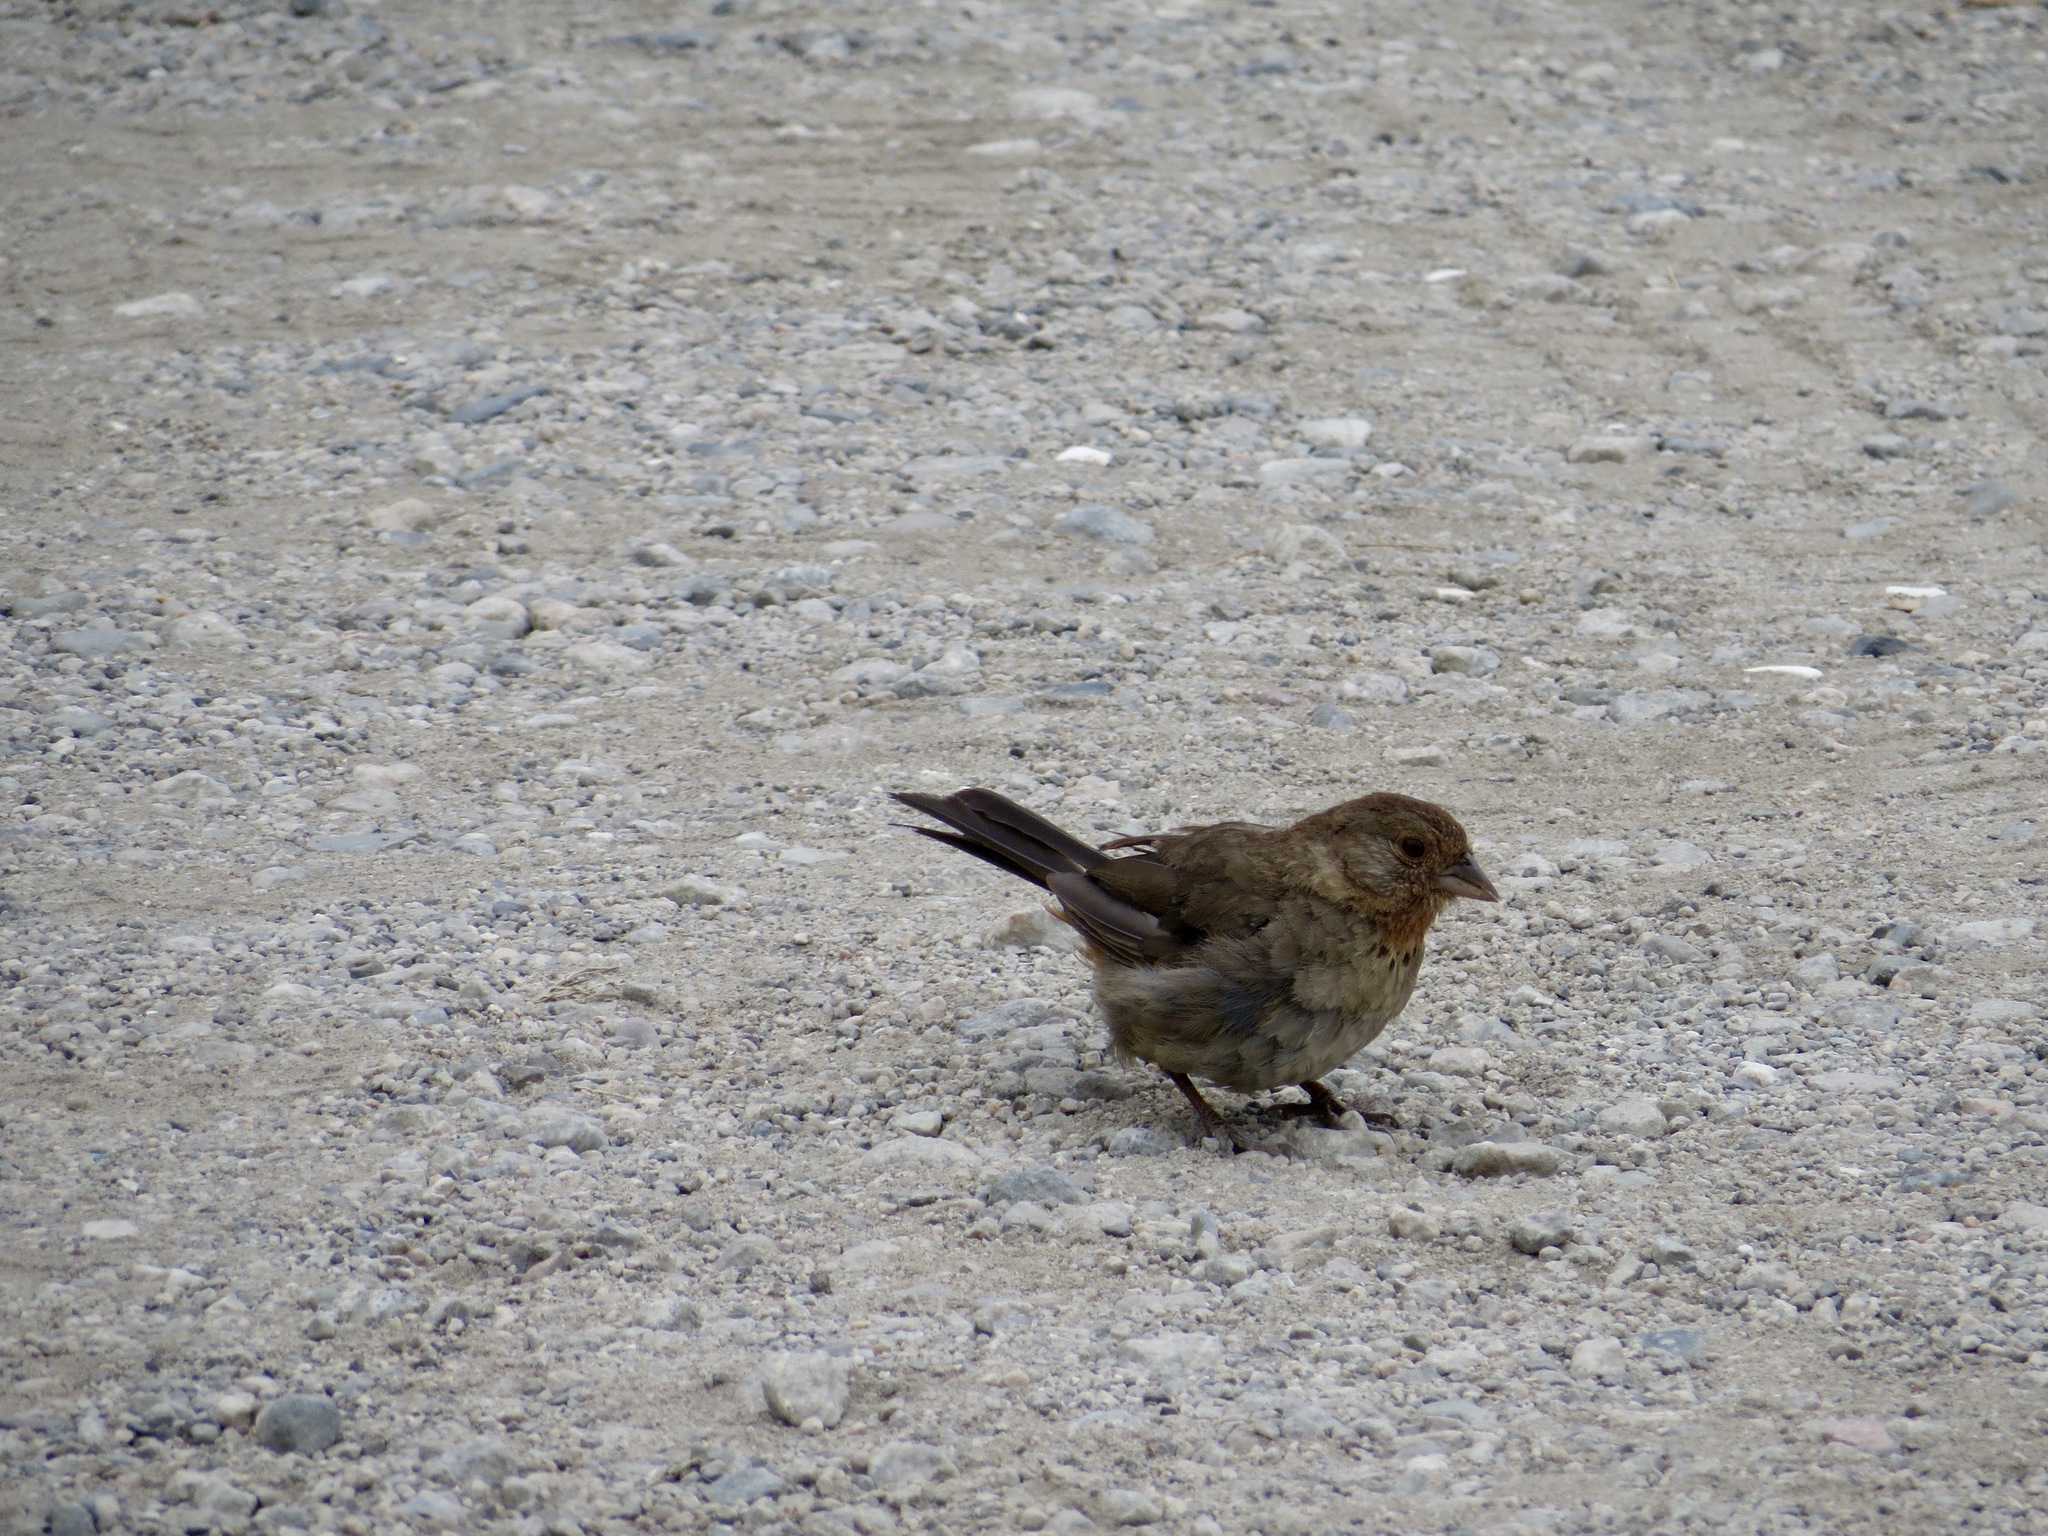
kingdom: Animalia
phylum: Chordata
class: Aves
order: Passeriformes
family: Passerellidae
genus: Melozone
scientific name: Melozone crissalis
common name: California towhee
